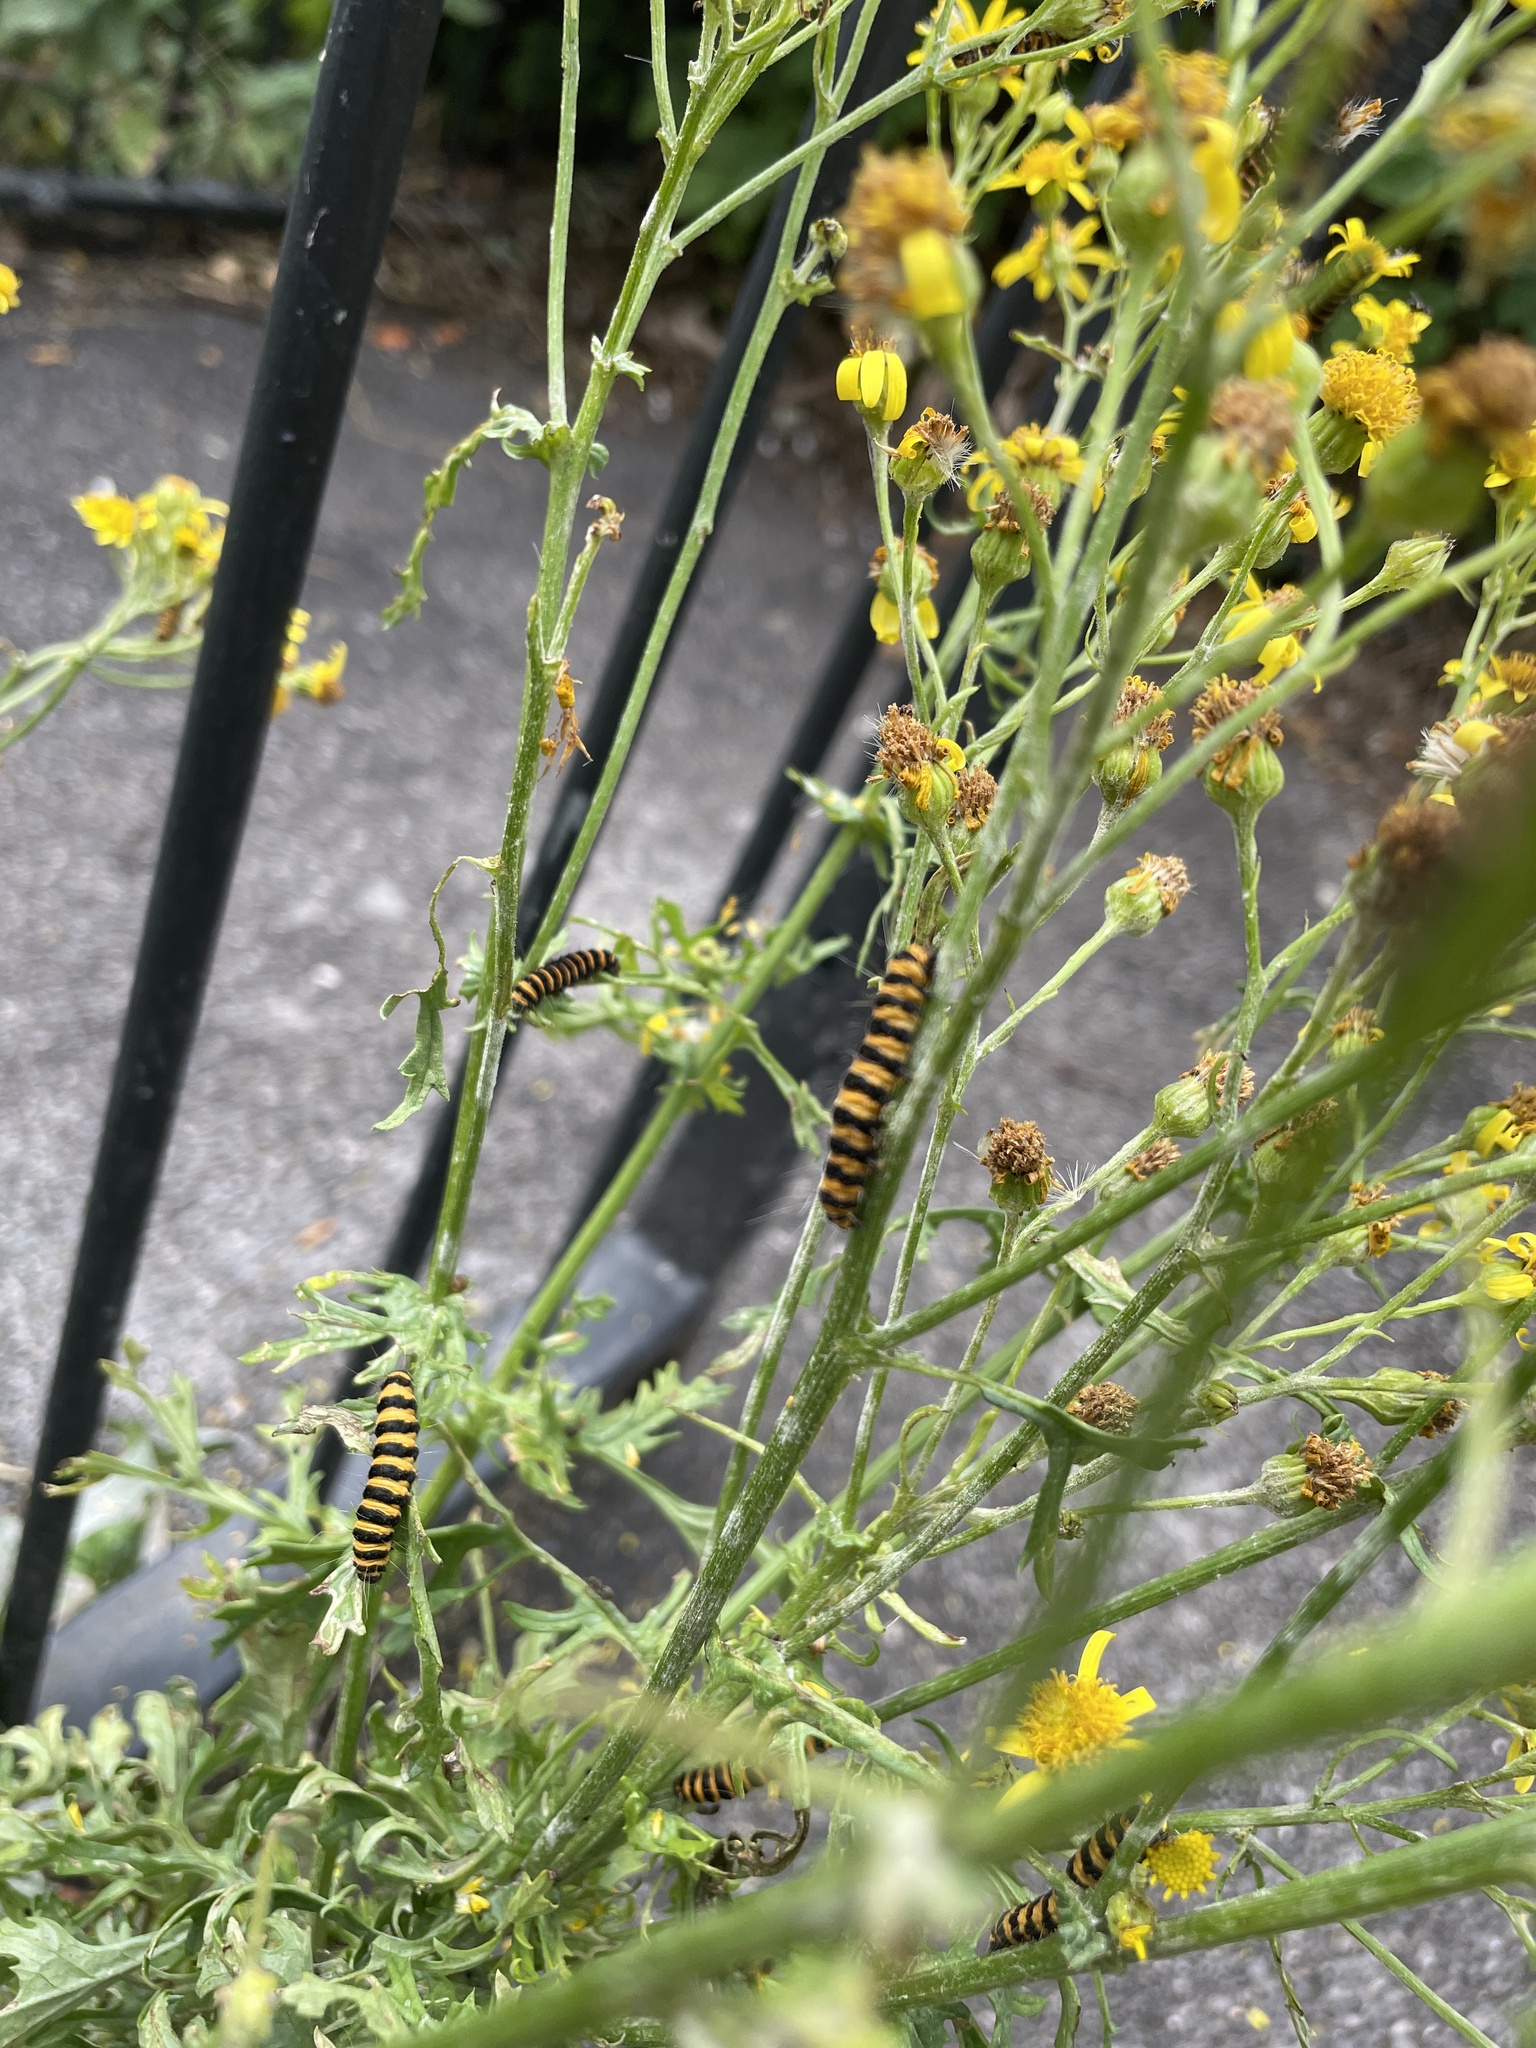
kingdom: Animalia
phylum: Arthropoda
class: Insecta
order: Lepidoptera
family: Erebidae
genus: Tyria
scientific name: Tyria jacobaeae
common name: Cinnabar
